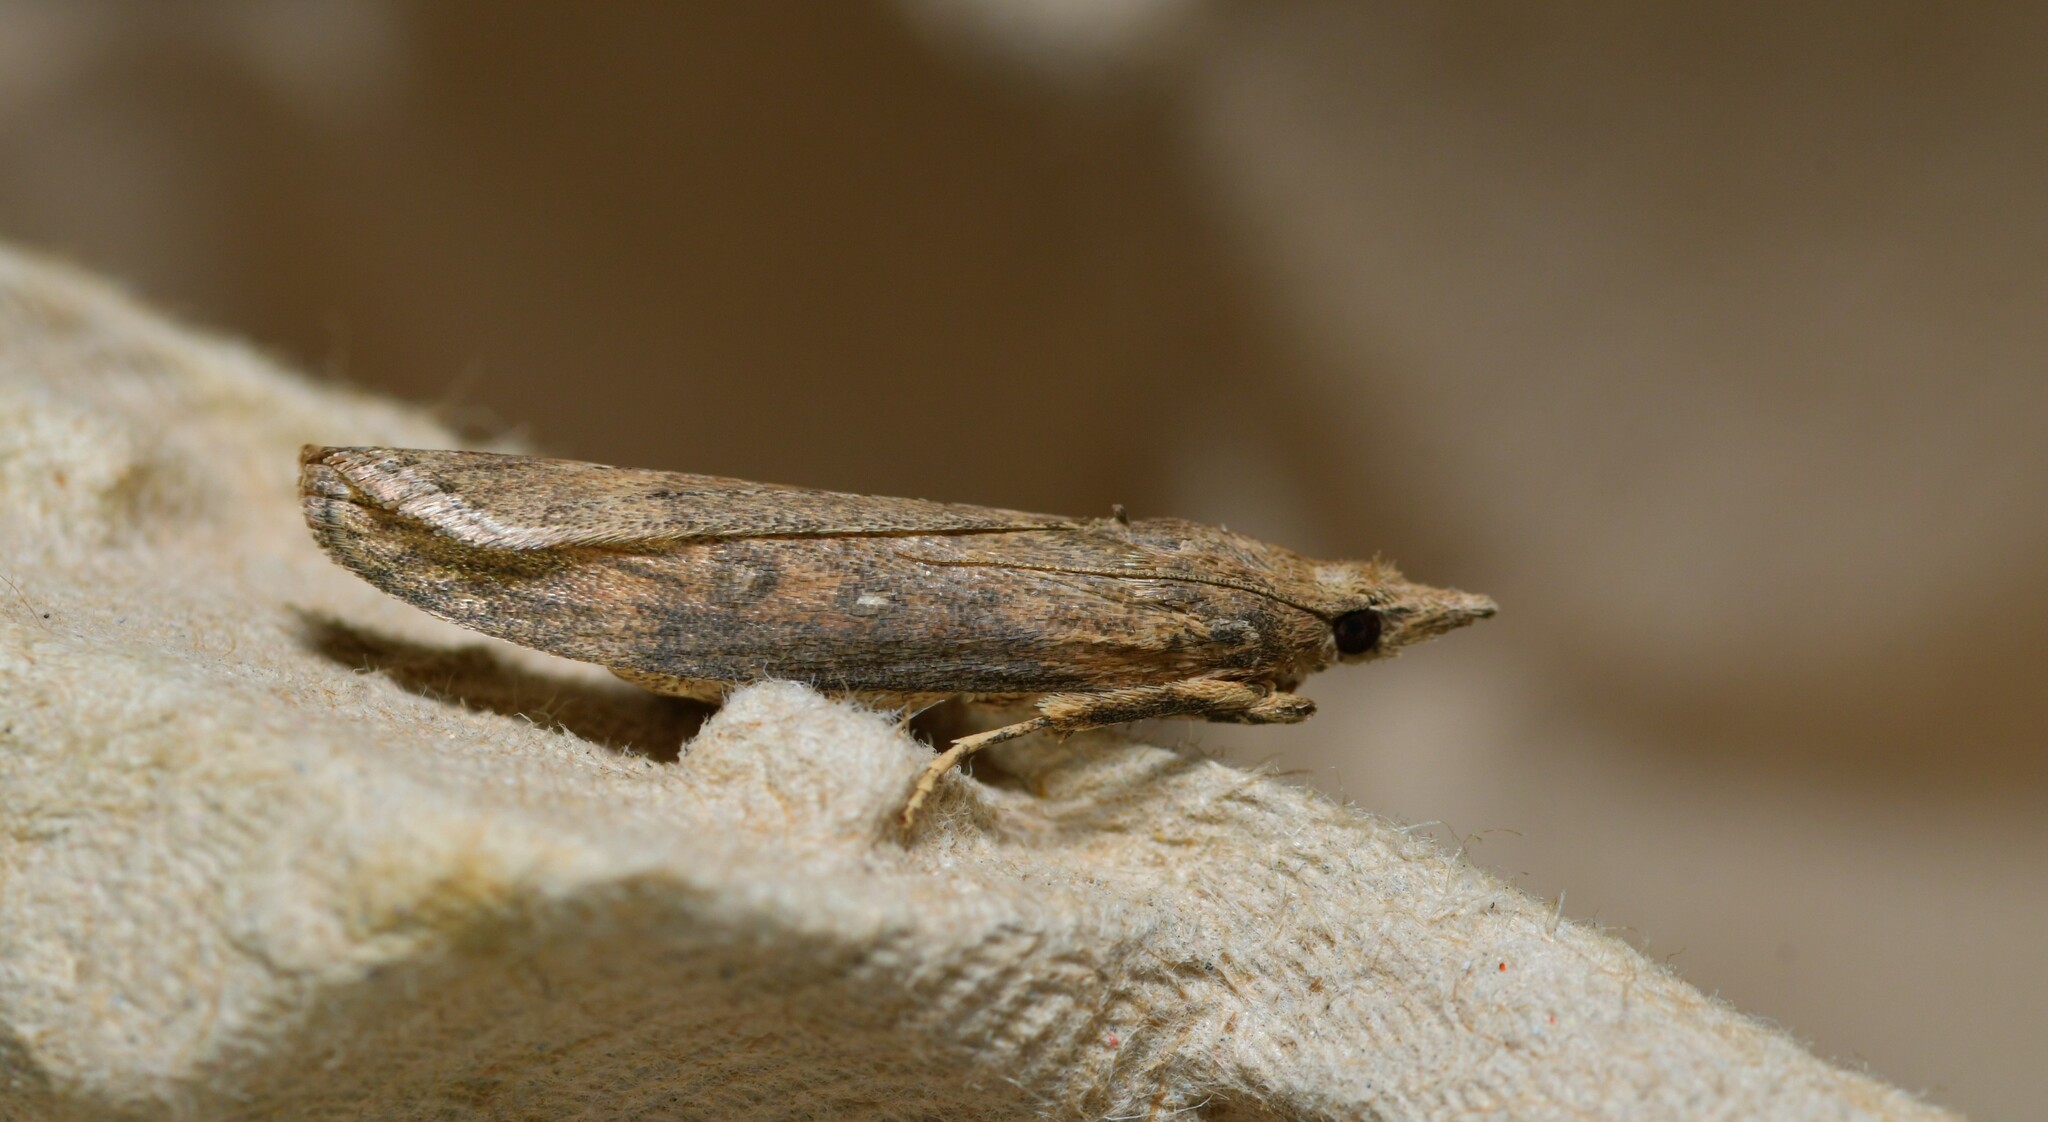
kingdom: Animalia
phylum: Arthropoda
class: Insecta
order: Lepidoptera
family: Pyralidae
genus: Lamoria
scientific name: Lamoria anella
